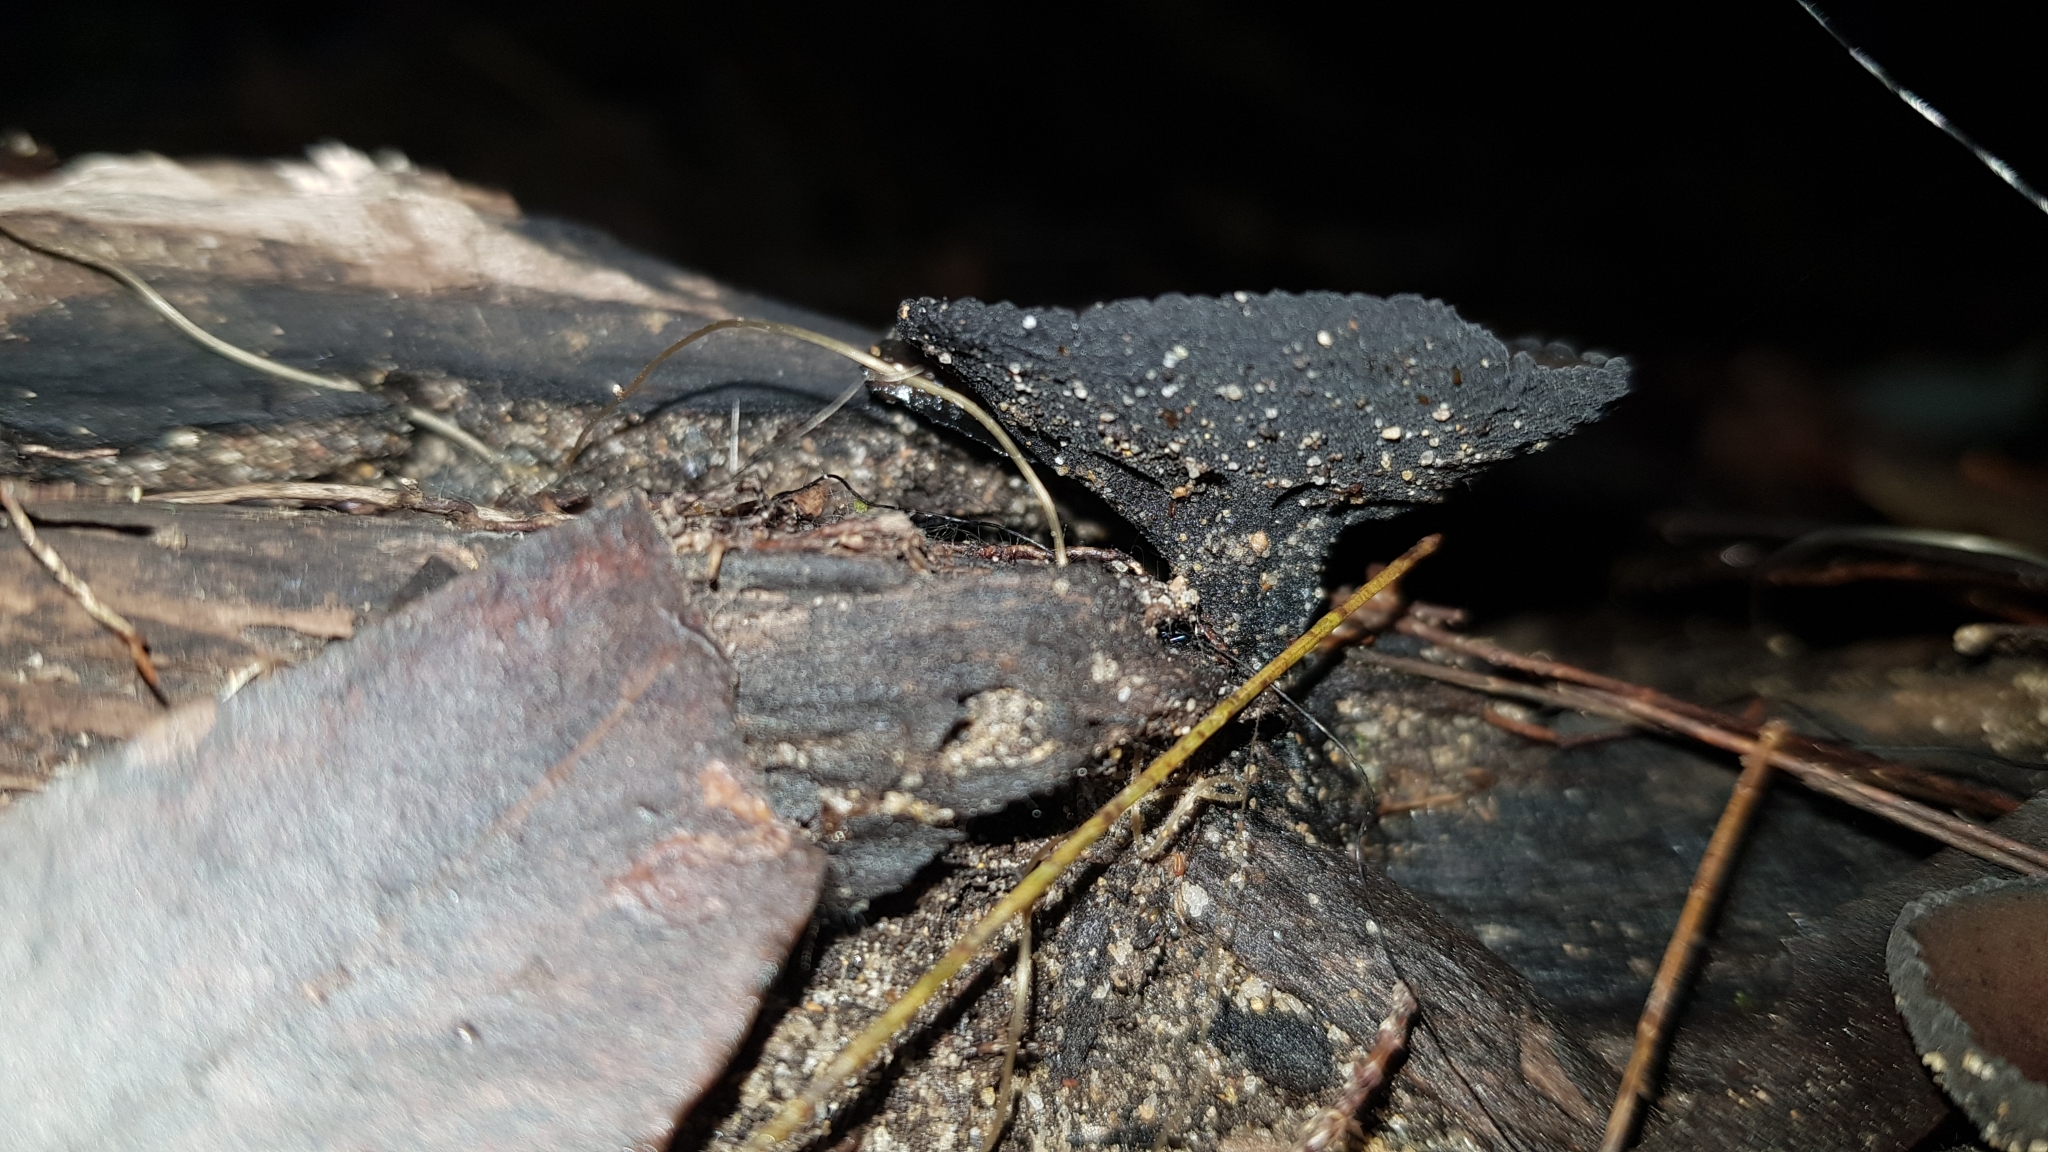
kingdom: Fungi
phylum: Ascomycota
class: Pezizomycetes
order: Pezizales
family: Sarcosomataceae
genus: Plectania
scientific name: Plectania campylospora
